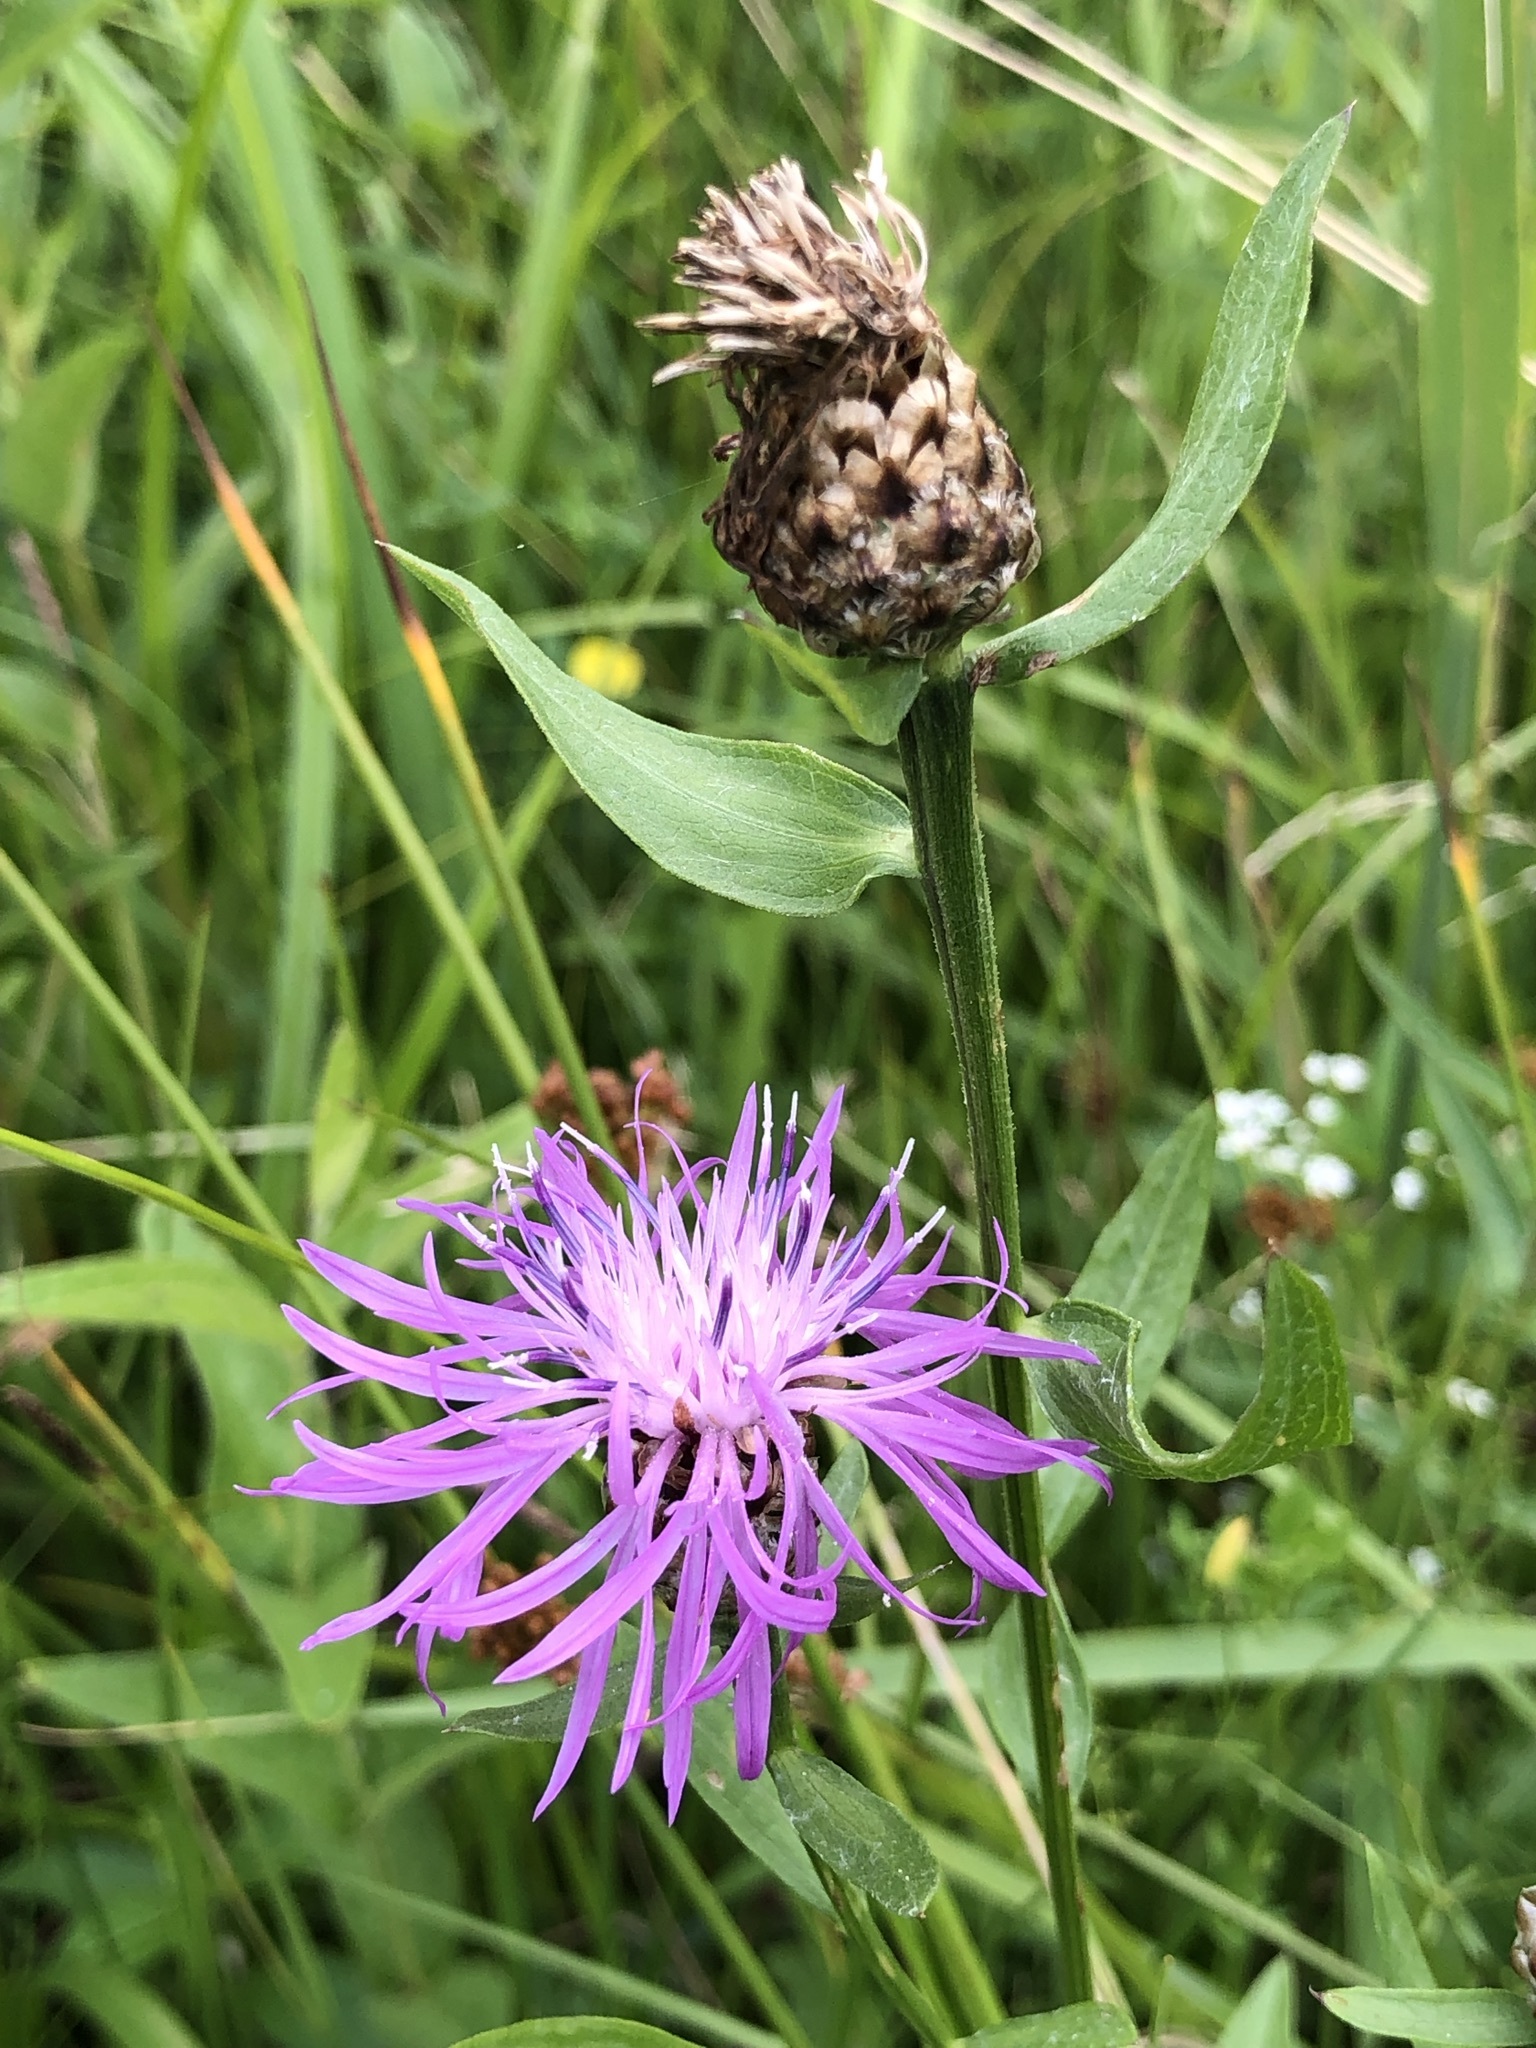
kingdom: Plantae
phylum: Tracheophyta
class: Magnoliopsida
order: Asterales
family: Asteraceae
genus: Centaurea
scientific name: Centaurea jacea
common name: Brown knapweed
